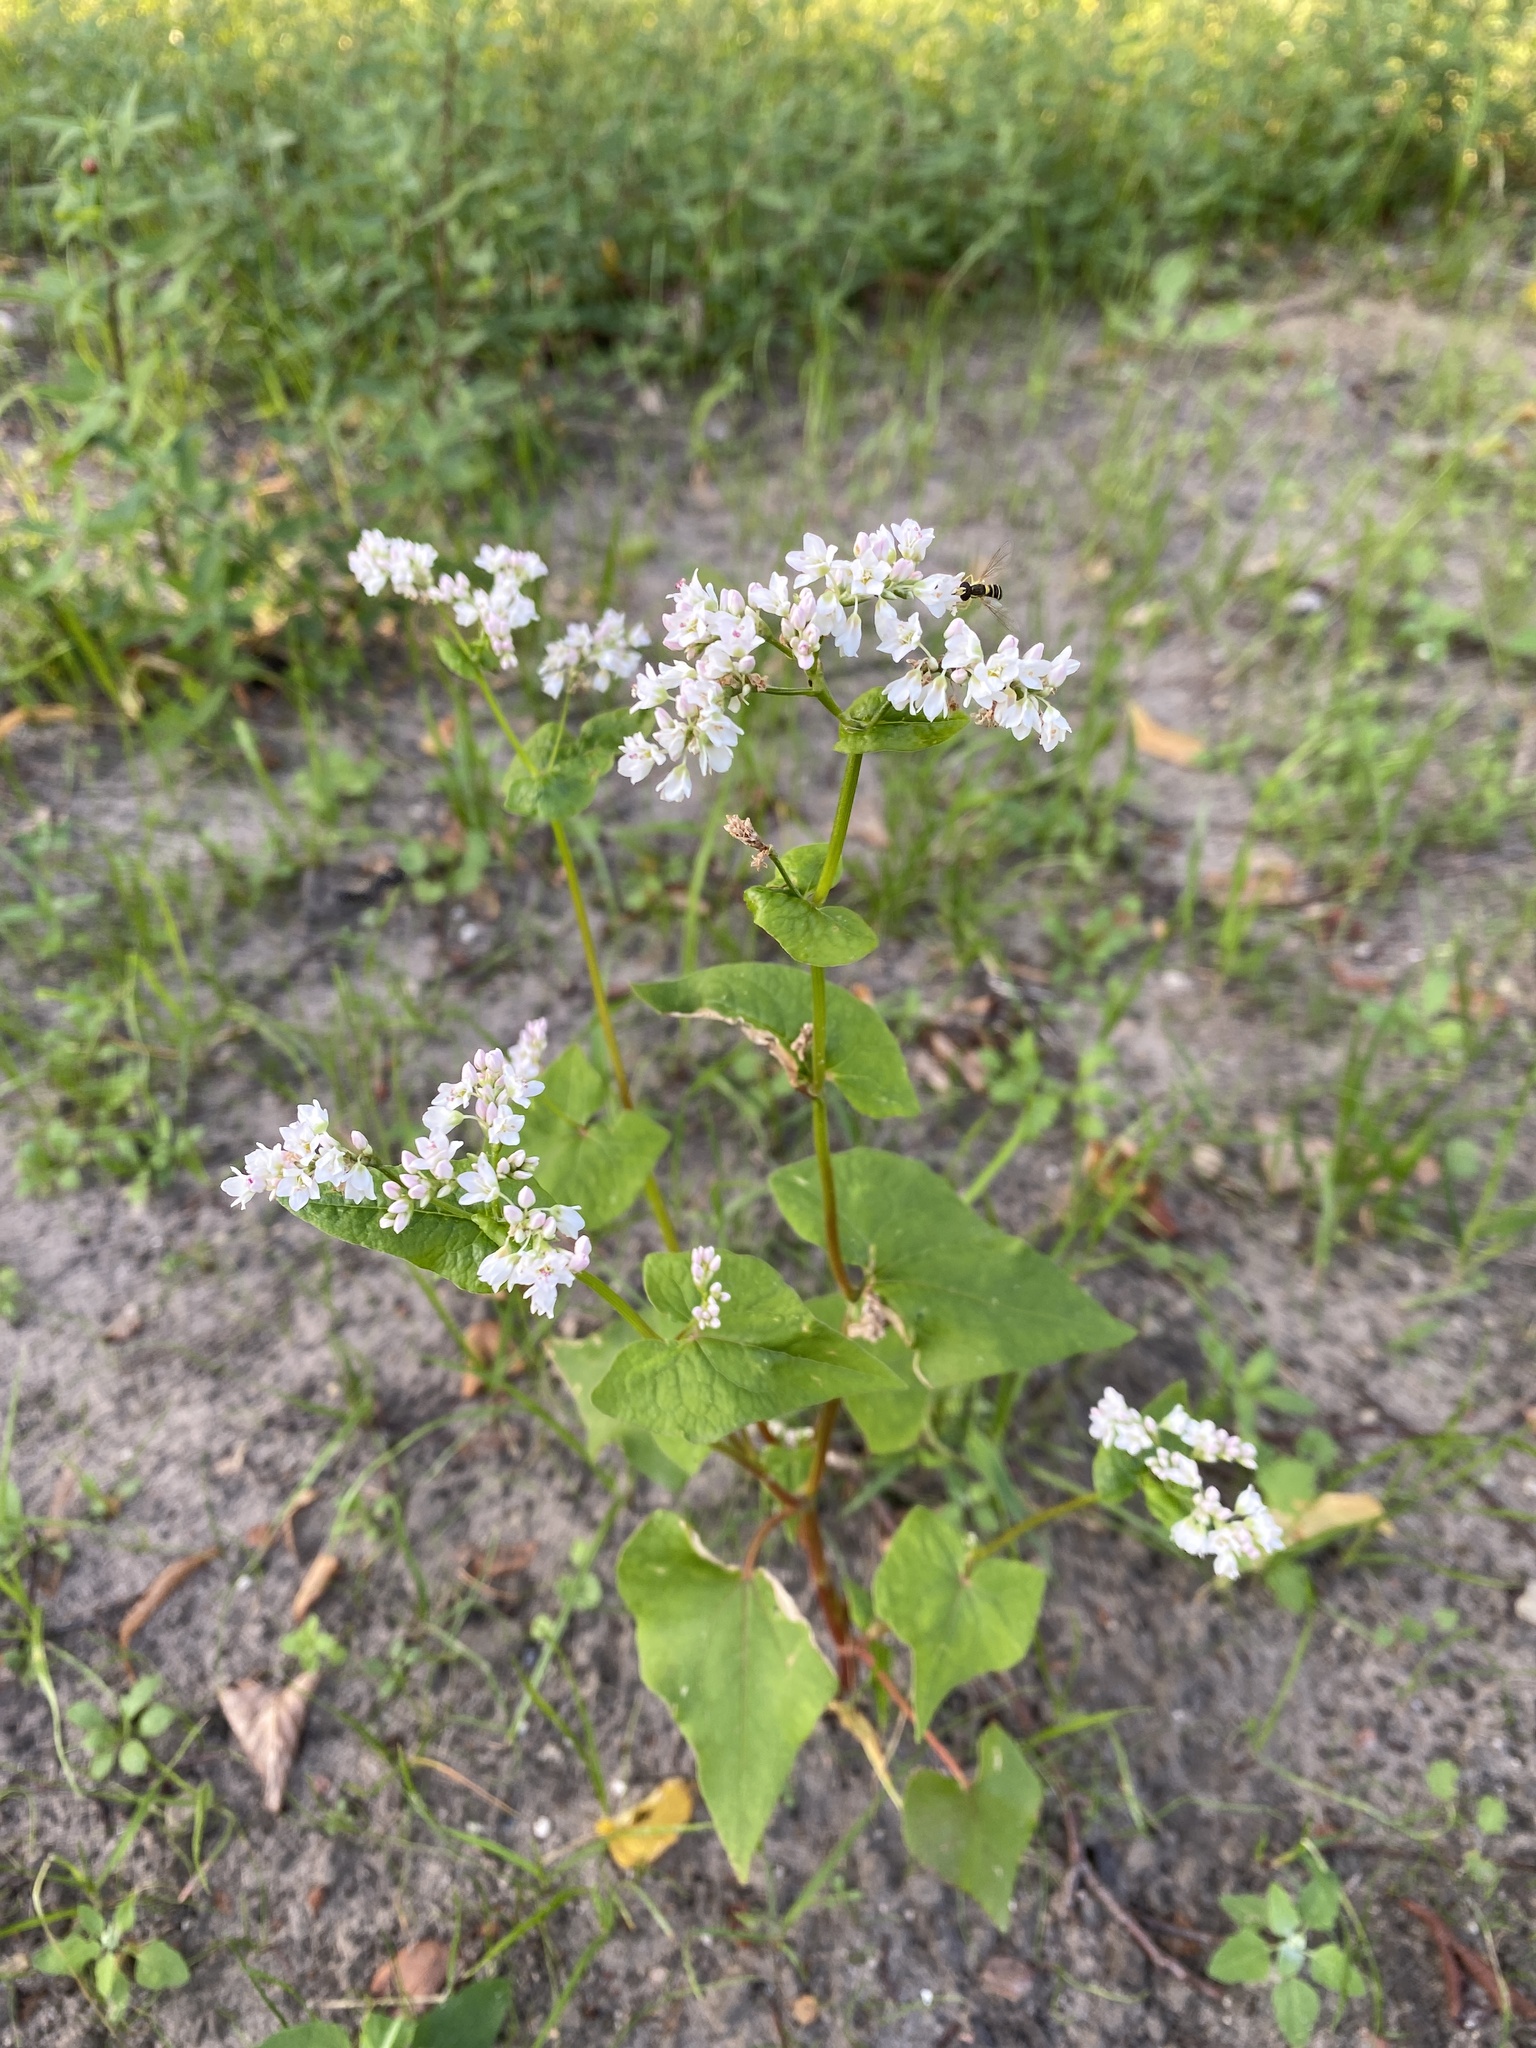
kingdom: Plantae
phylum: Tracheophyta
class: Magnoliopsida
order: Caryophyllales
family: Polygonaceae
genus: Fagopyrum
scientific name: Fagopyrum esculentum
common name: Buckwheat
